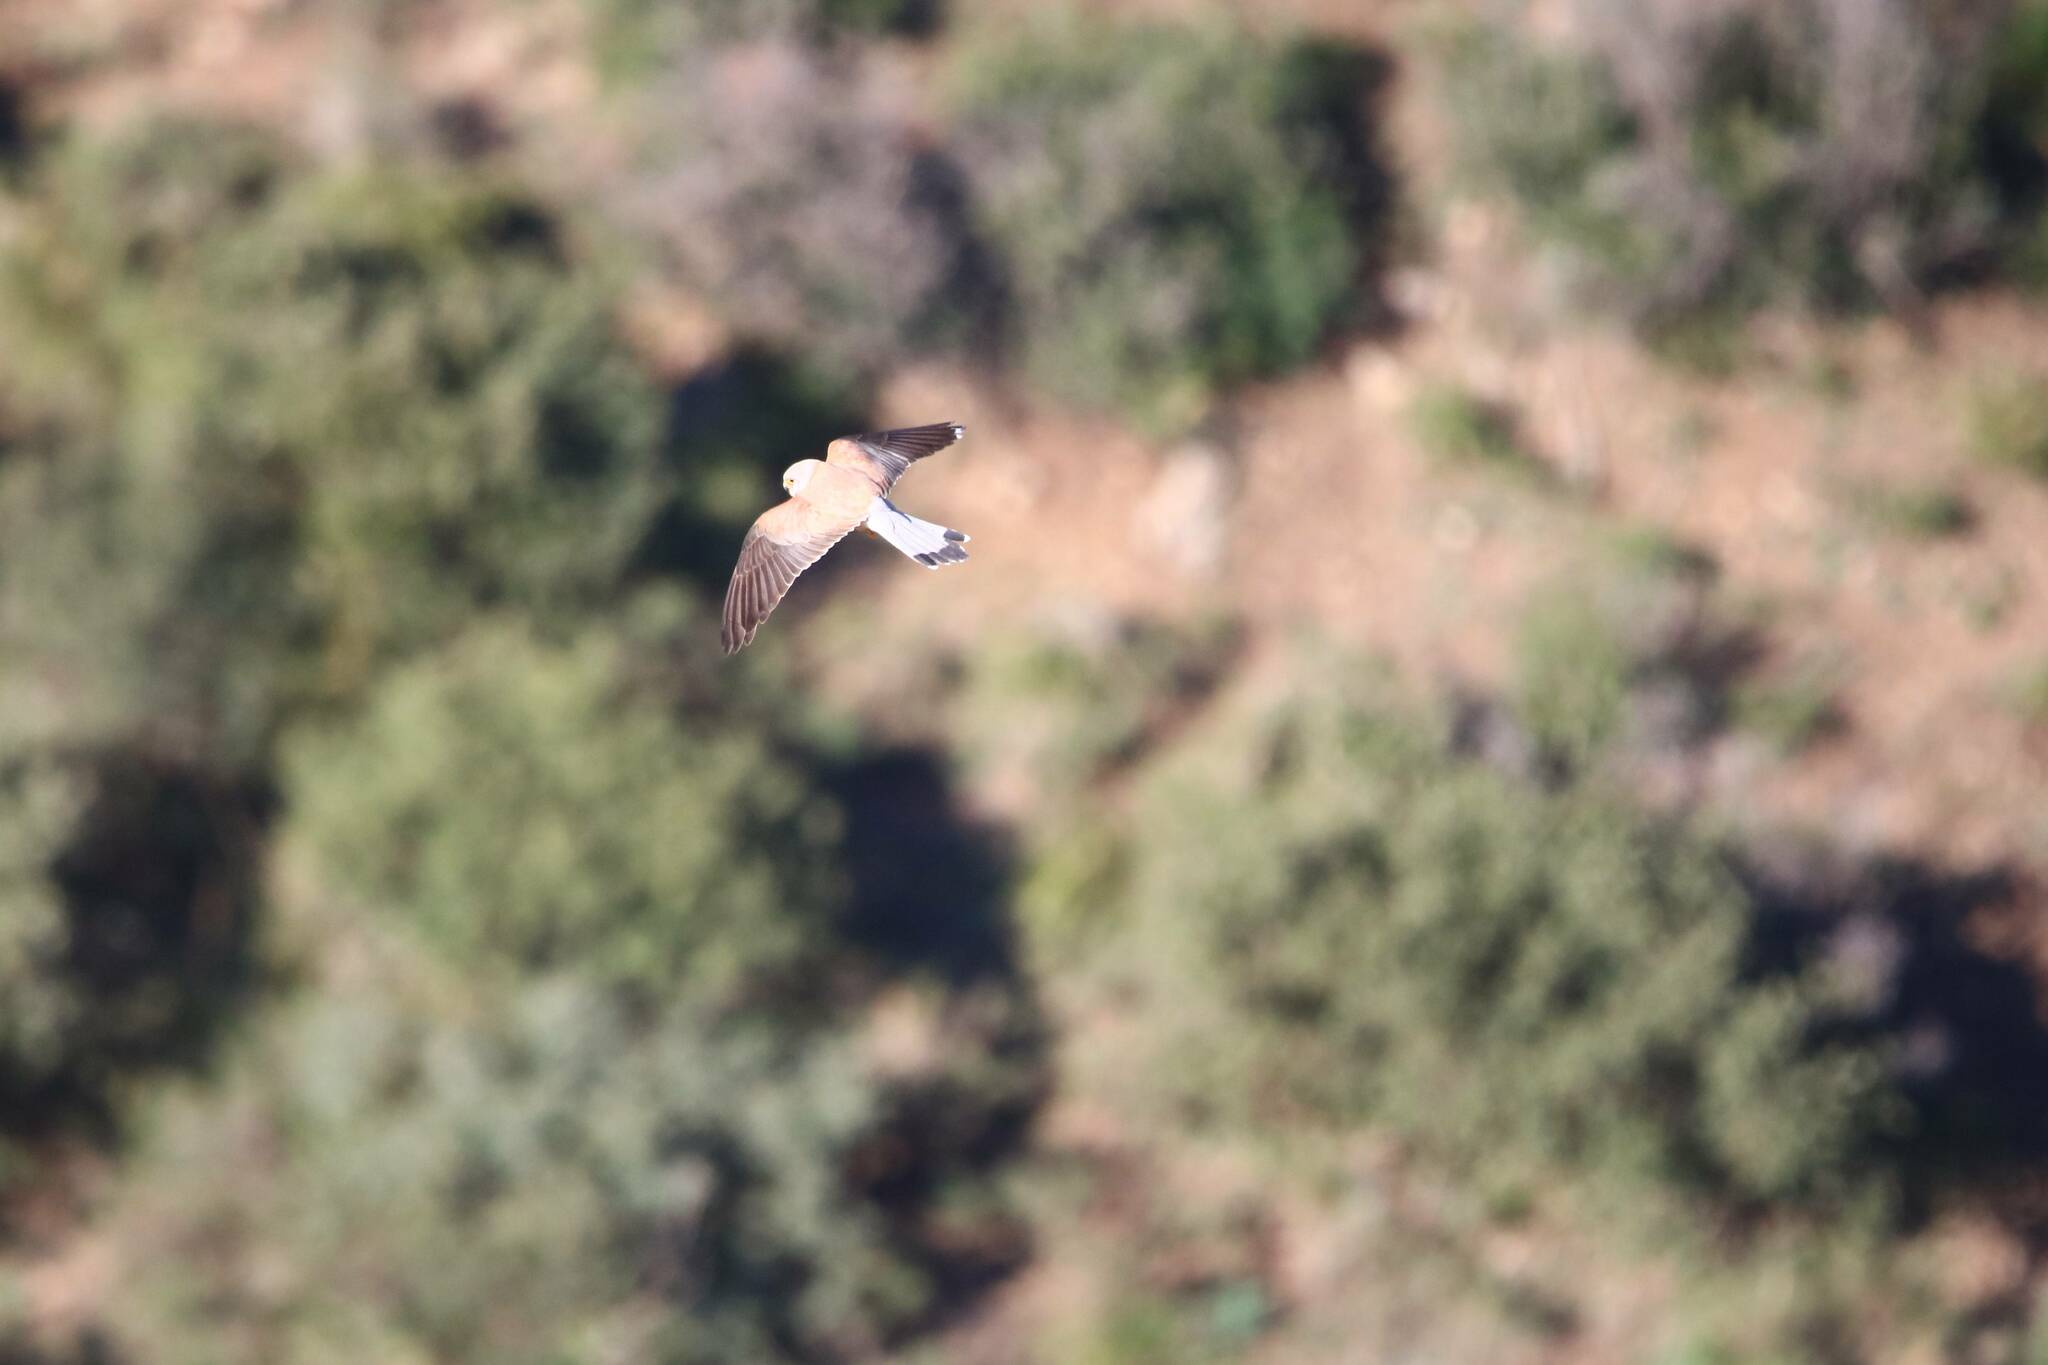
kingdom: Animalia
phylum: Chordata
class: Aves
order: Falconiformes
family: Falconidae
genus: Falco
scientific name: Falco naumanni
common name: Lesser kestrel
